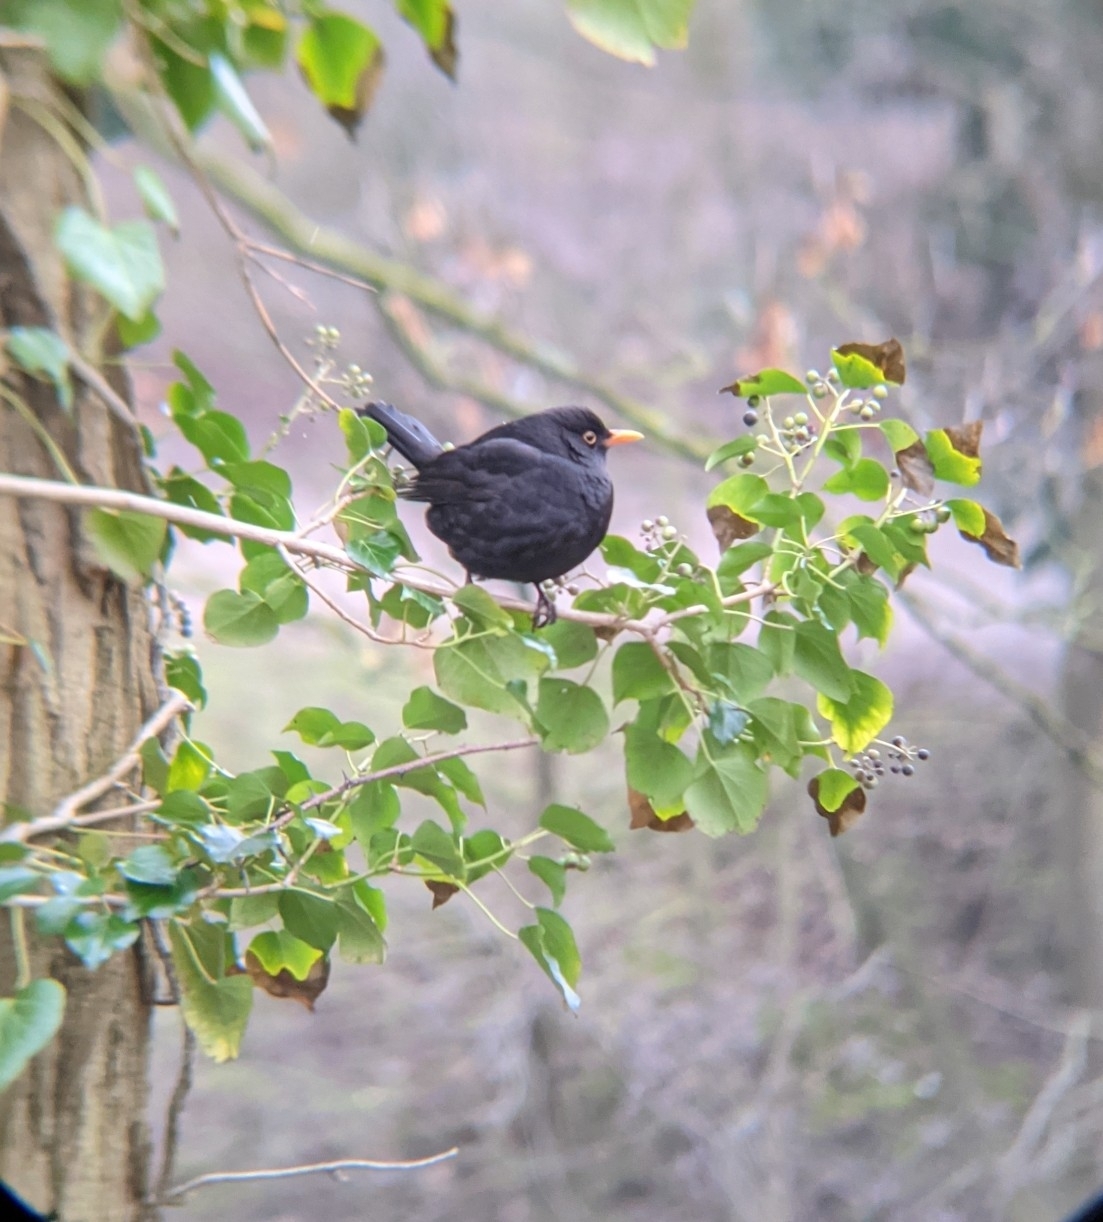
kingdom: Animalia
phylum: Chordata
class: Aves
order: Passeriformes
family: Turdidae
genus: Turdus
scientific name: Turdus merula
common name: Common blackbird
